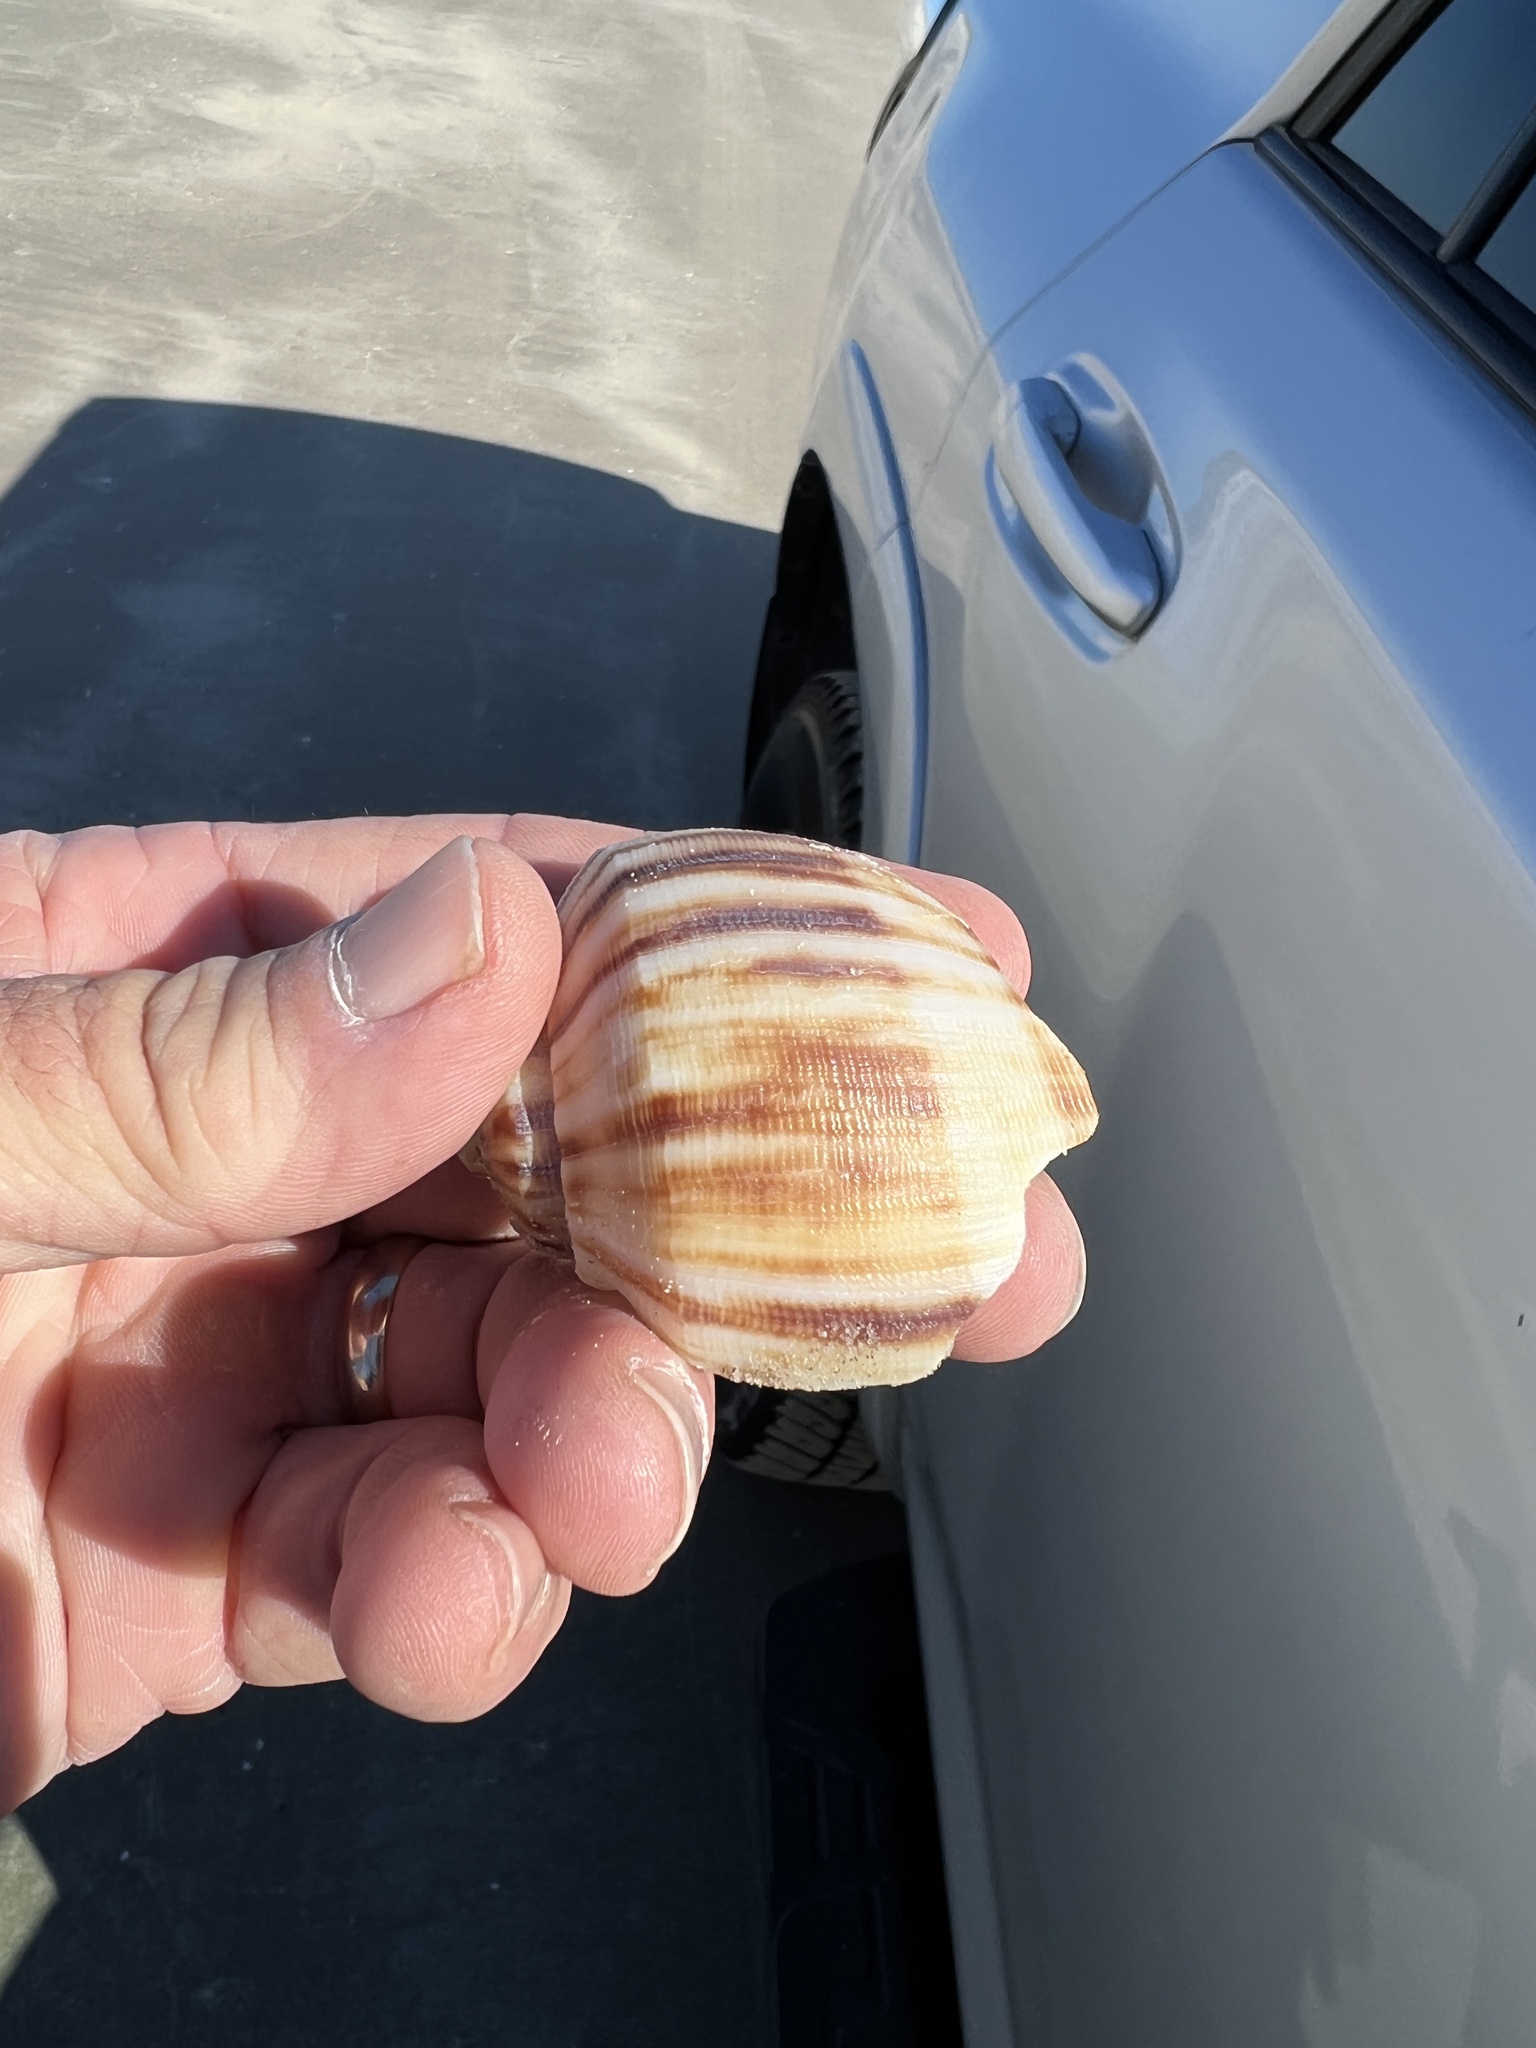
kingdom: Animalia
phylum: Mollusca
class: Gastropoda
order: Neogastropoda
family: Busyconidae
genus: Fulguropsis
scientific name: Fulguropsis spirata
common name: Pear whelk
